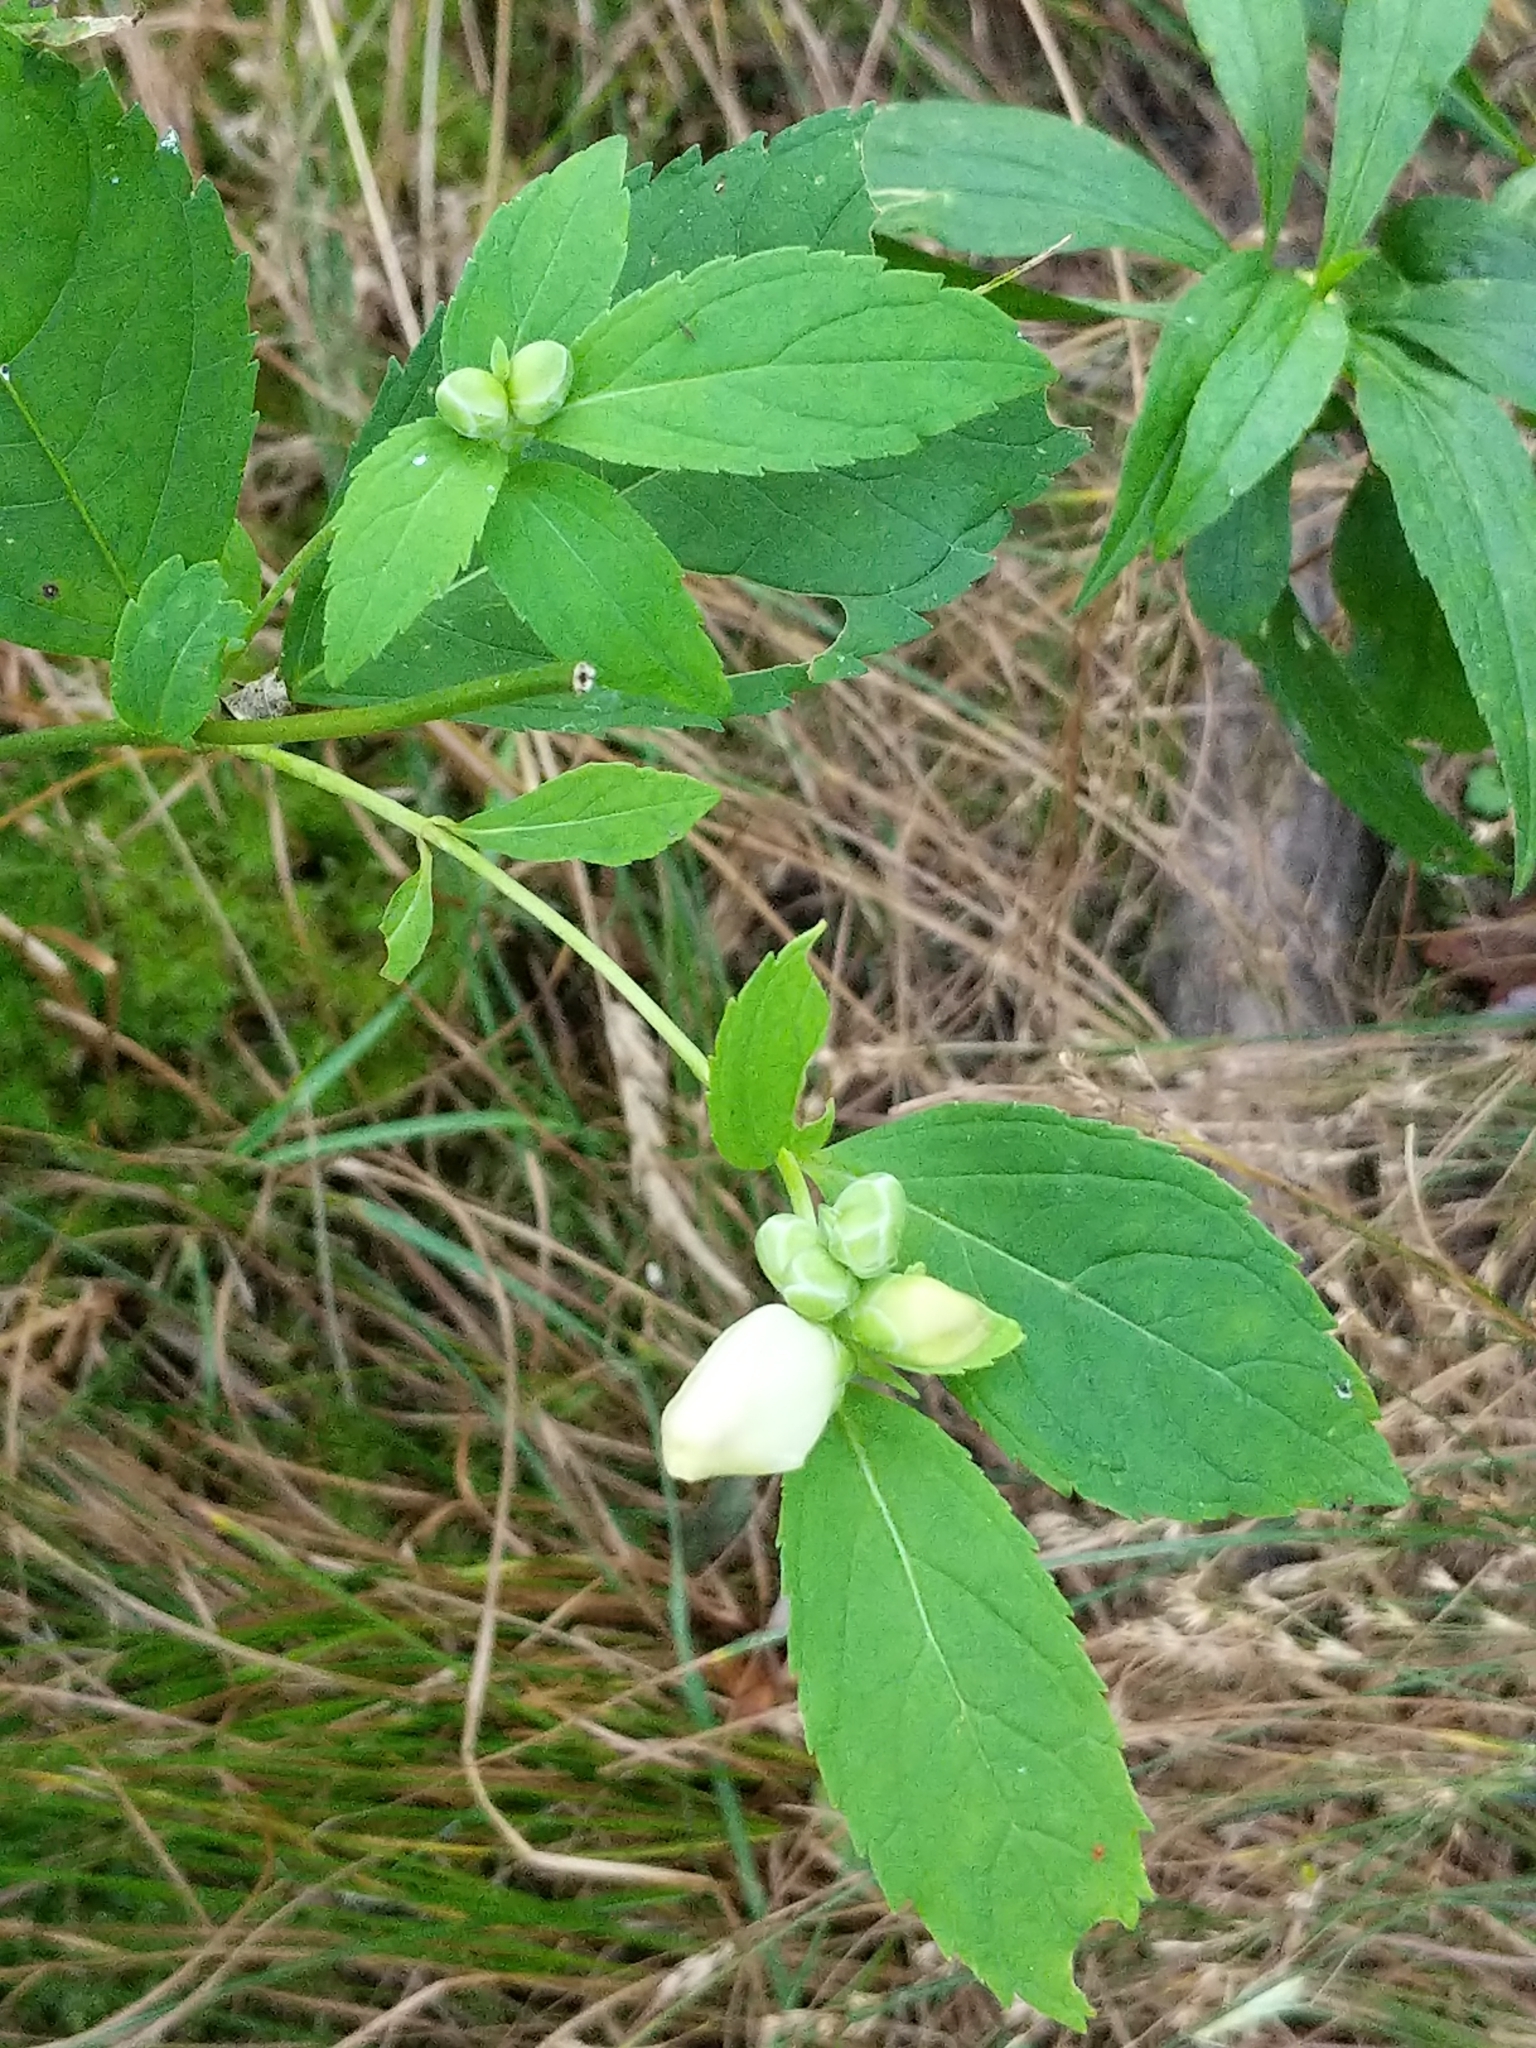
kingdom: Plantae
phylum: Tracheophyta
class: Magnoliopsida
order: Lamiales
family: Plantaginaceae
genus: Chelone
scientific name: Chelone glabra
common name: Snakehead
